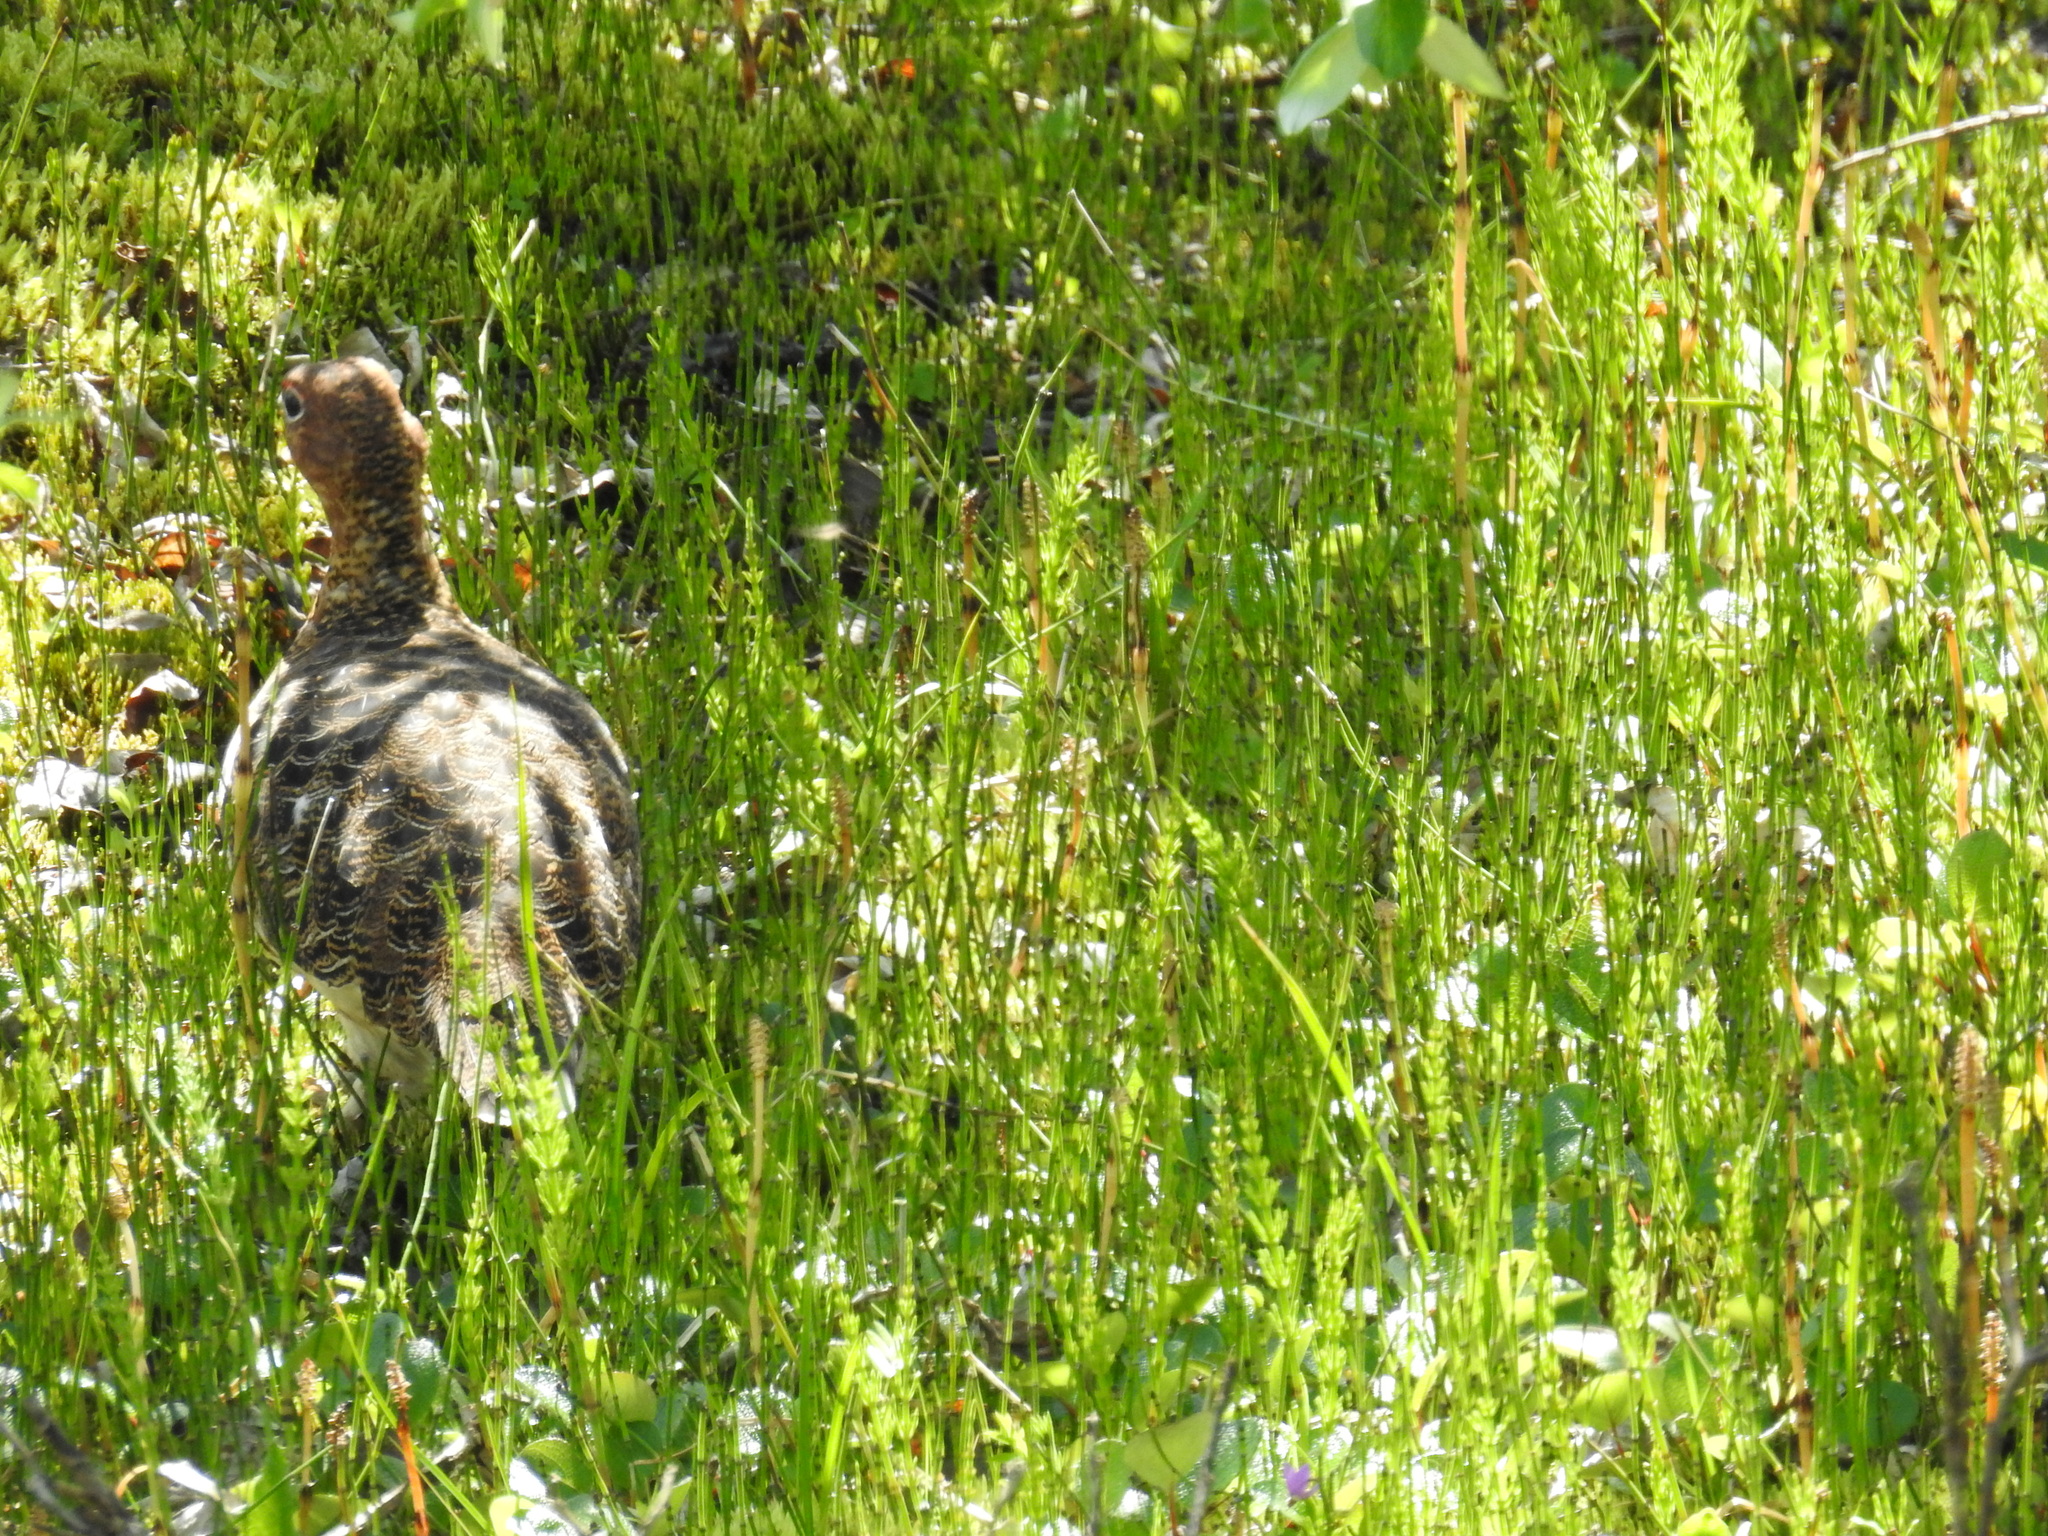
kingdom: Animalia
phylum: Chordata
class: Aves
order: Galliformes
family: Phasianidae
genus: Lagopus
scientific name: Lagopus lagopus
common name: Willow ptarmigan
